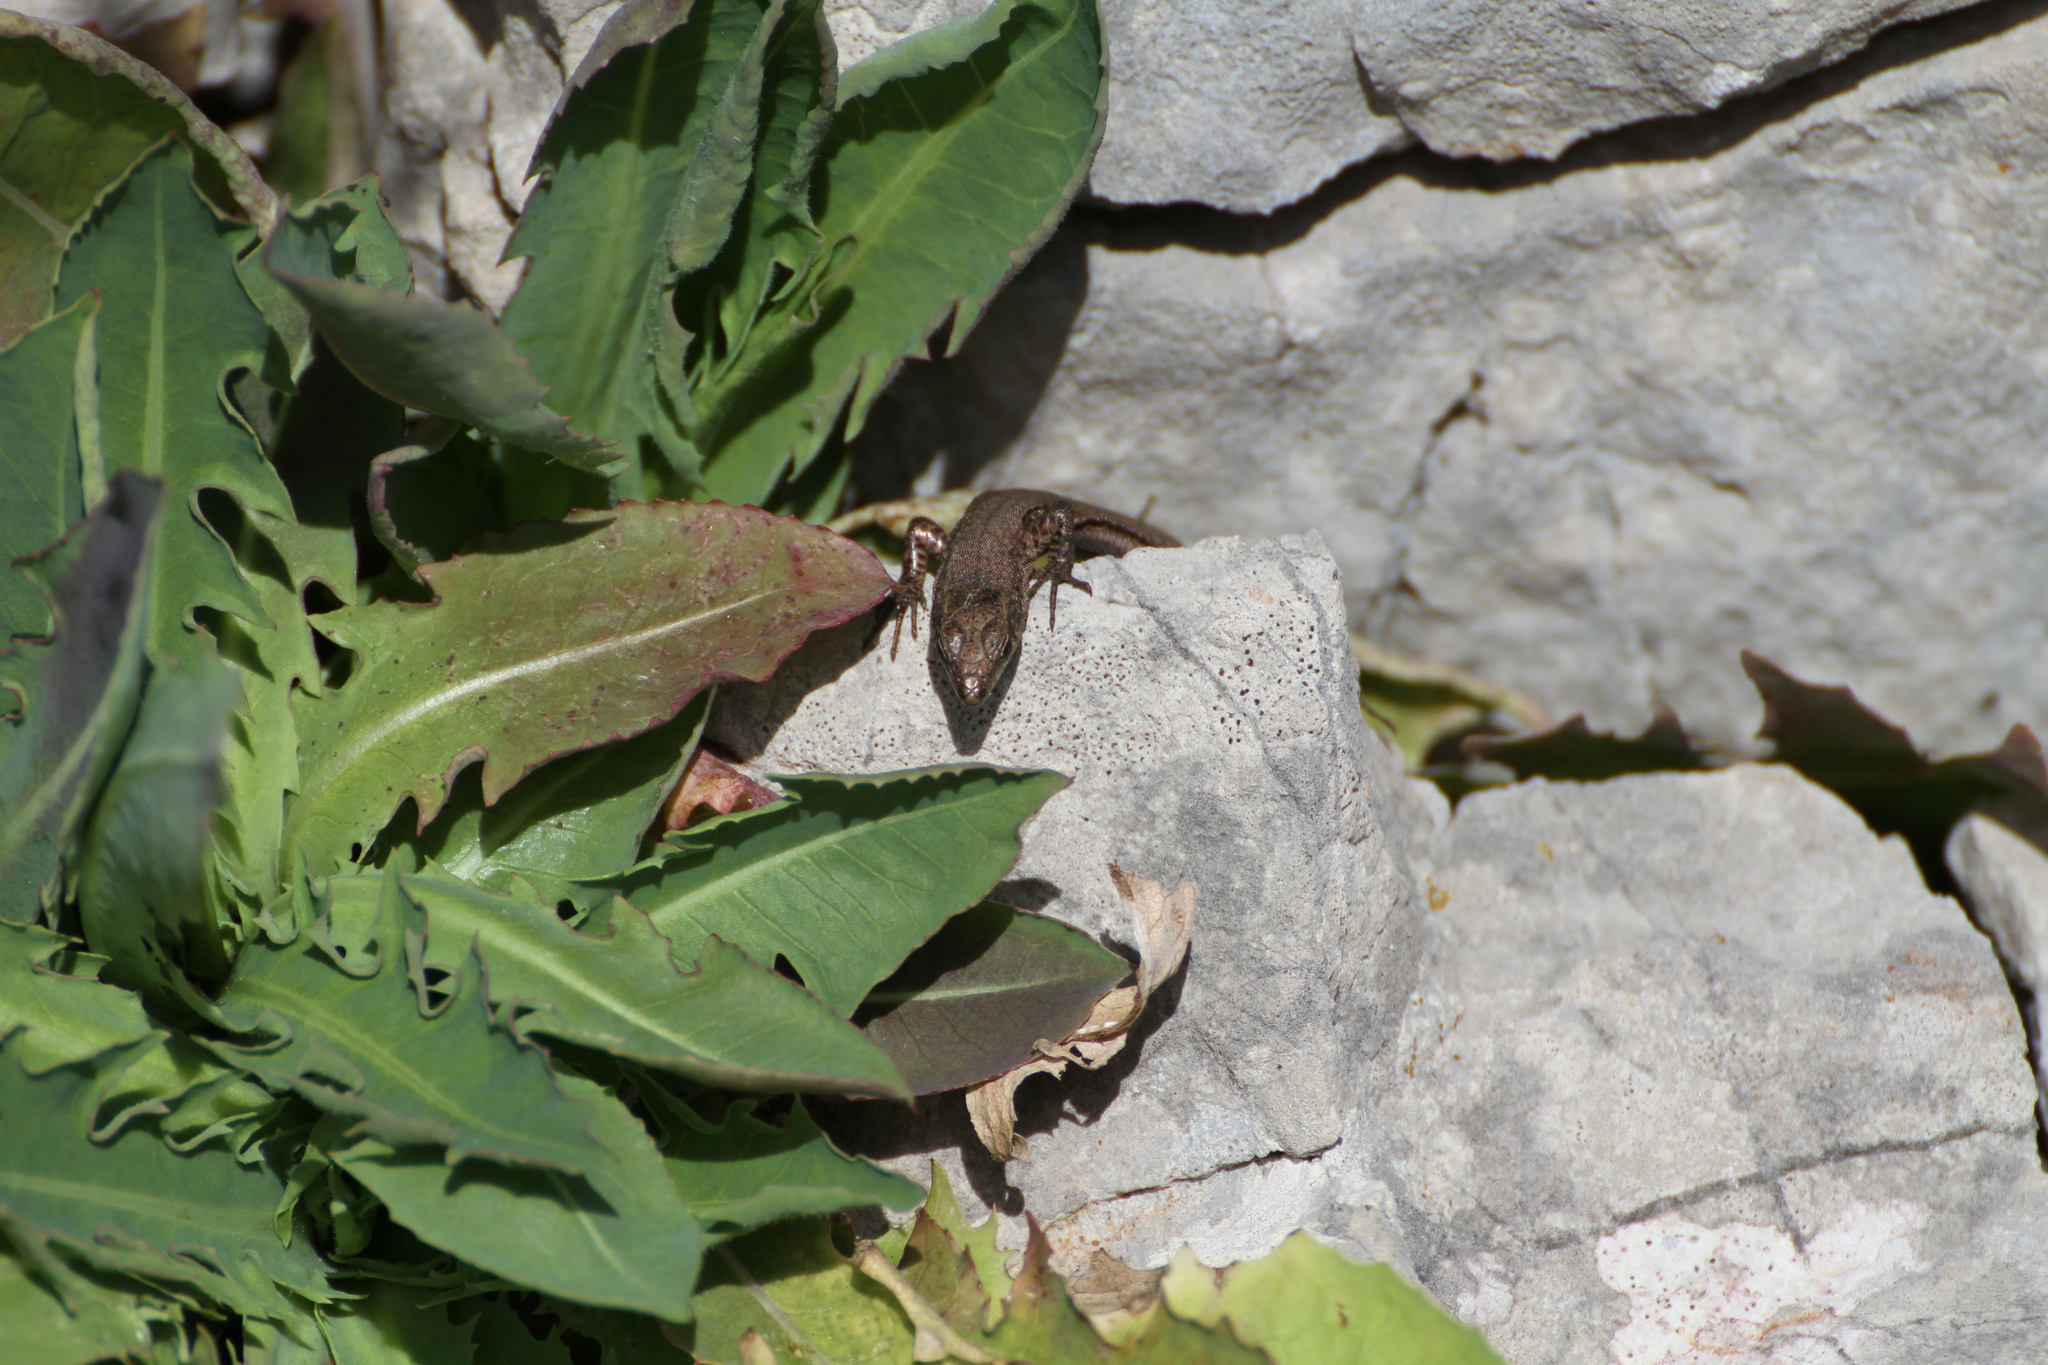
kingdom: Animalia
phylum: Chordata
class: Squamata
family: Lacertidae
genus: Podarcis
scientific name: Podarcis liolepis
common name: Catalonian wall lizard
